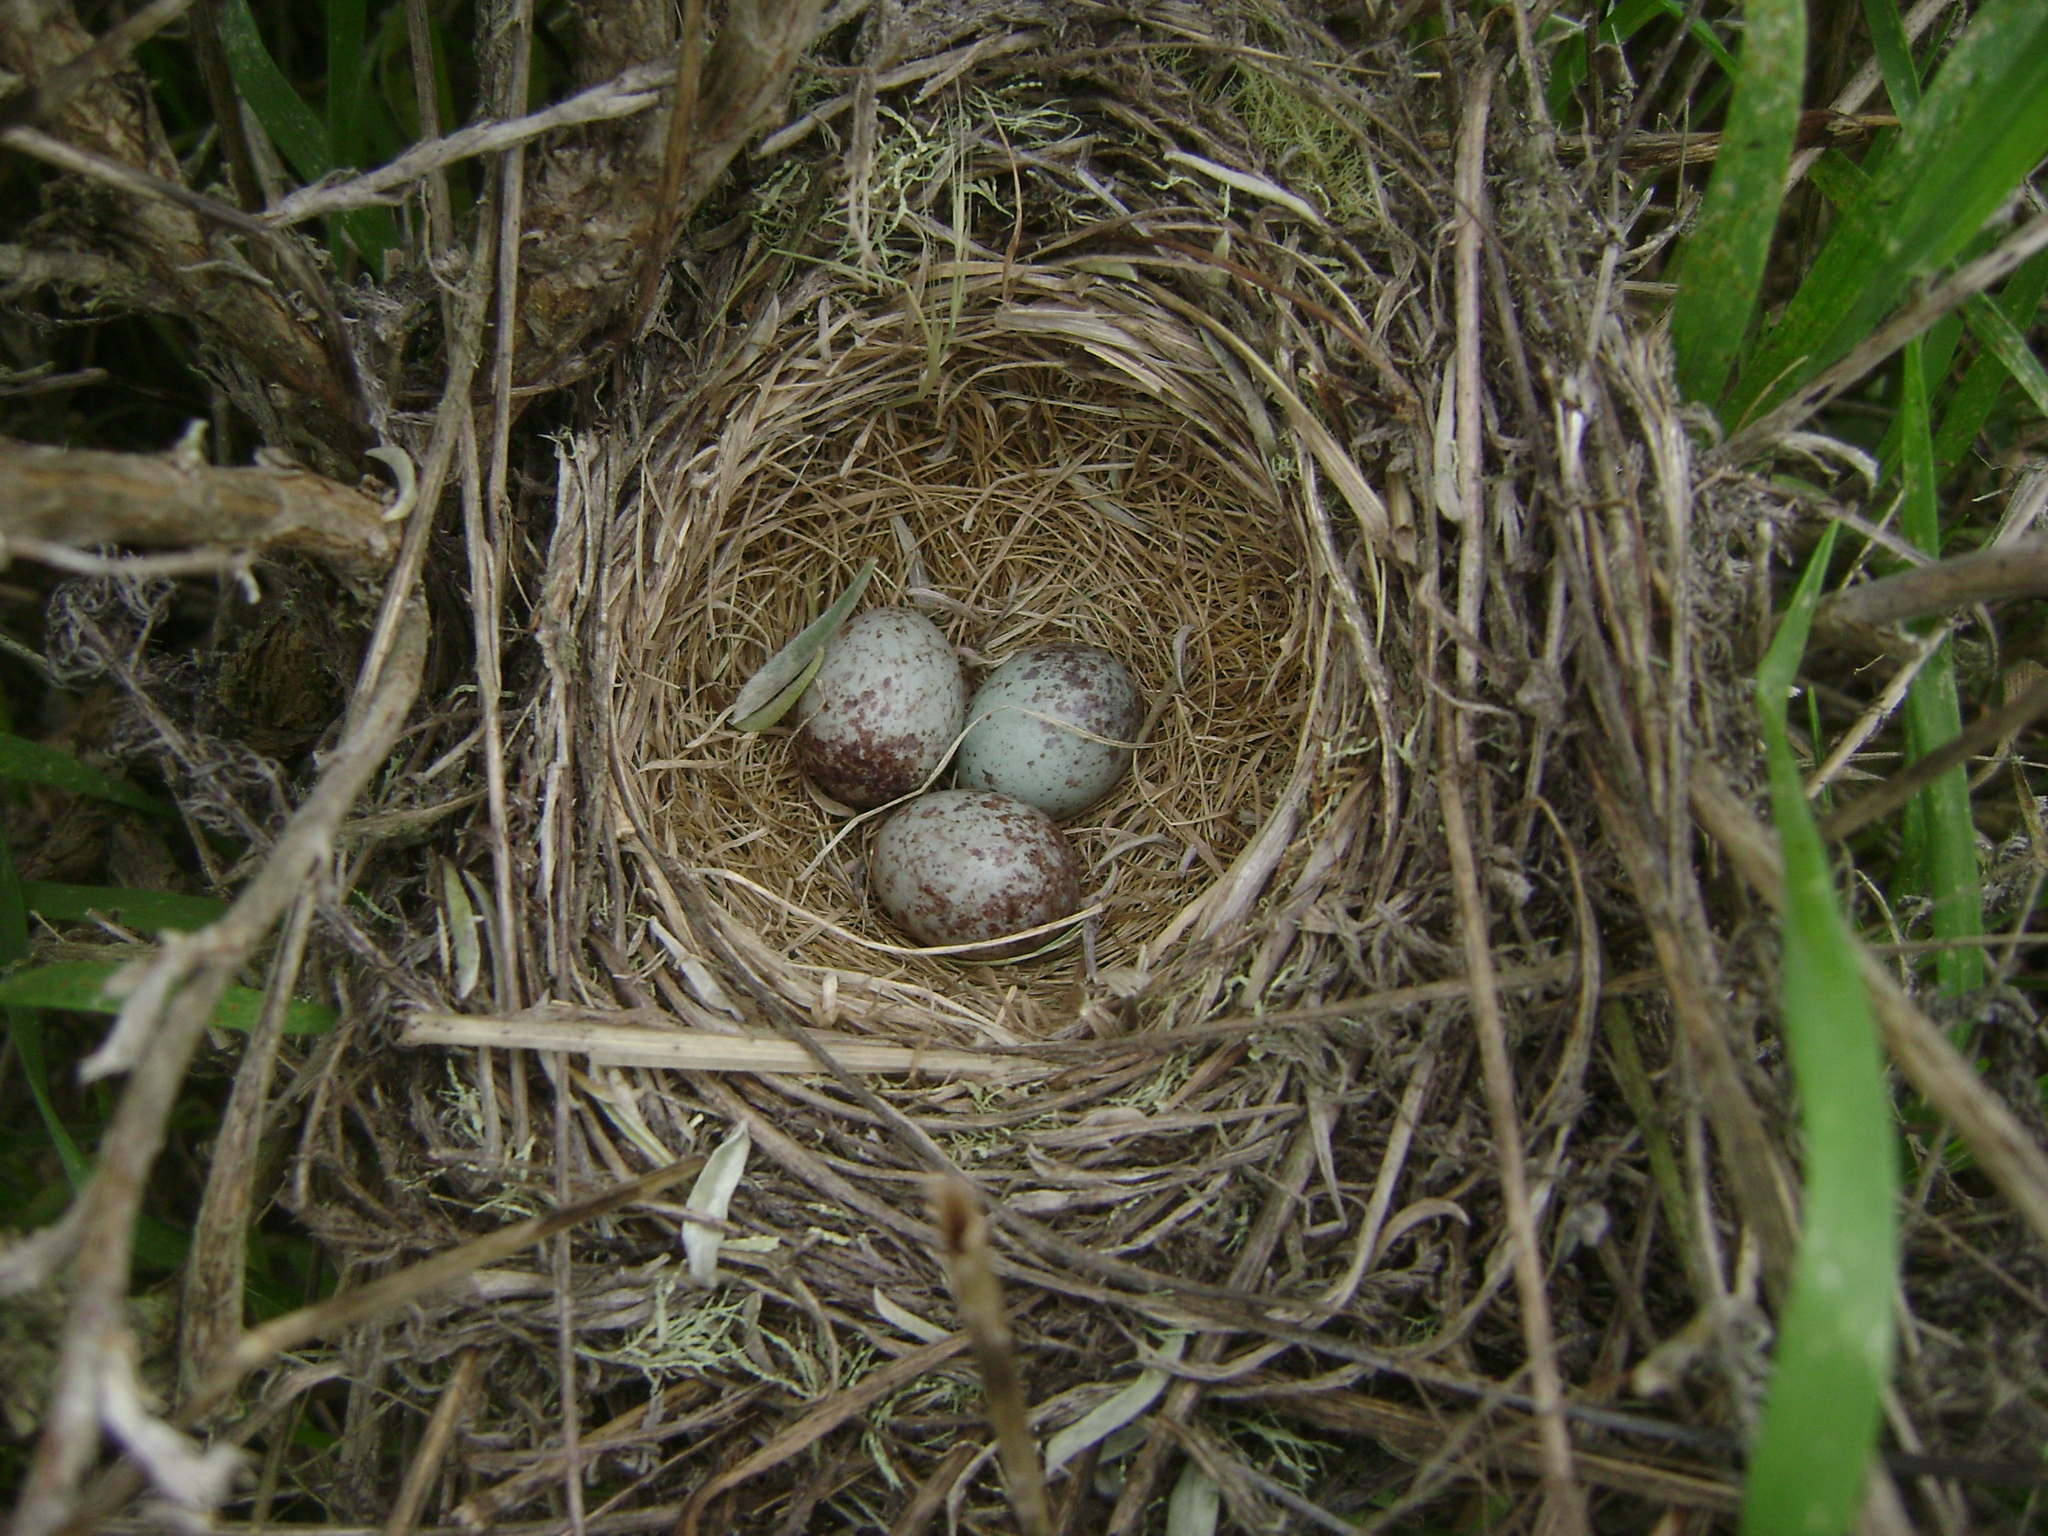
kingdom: Animalia
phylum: Chordata
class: Aves
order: Passeriformes
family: Passerellidae
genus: Melospiza
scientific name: Melospiza melodia
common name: Song sparrow
